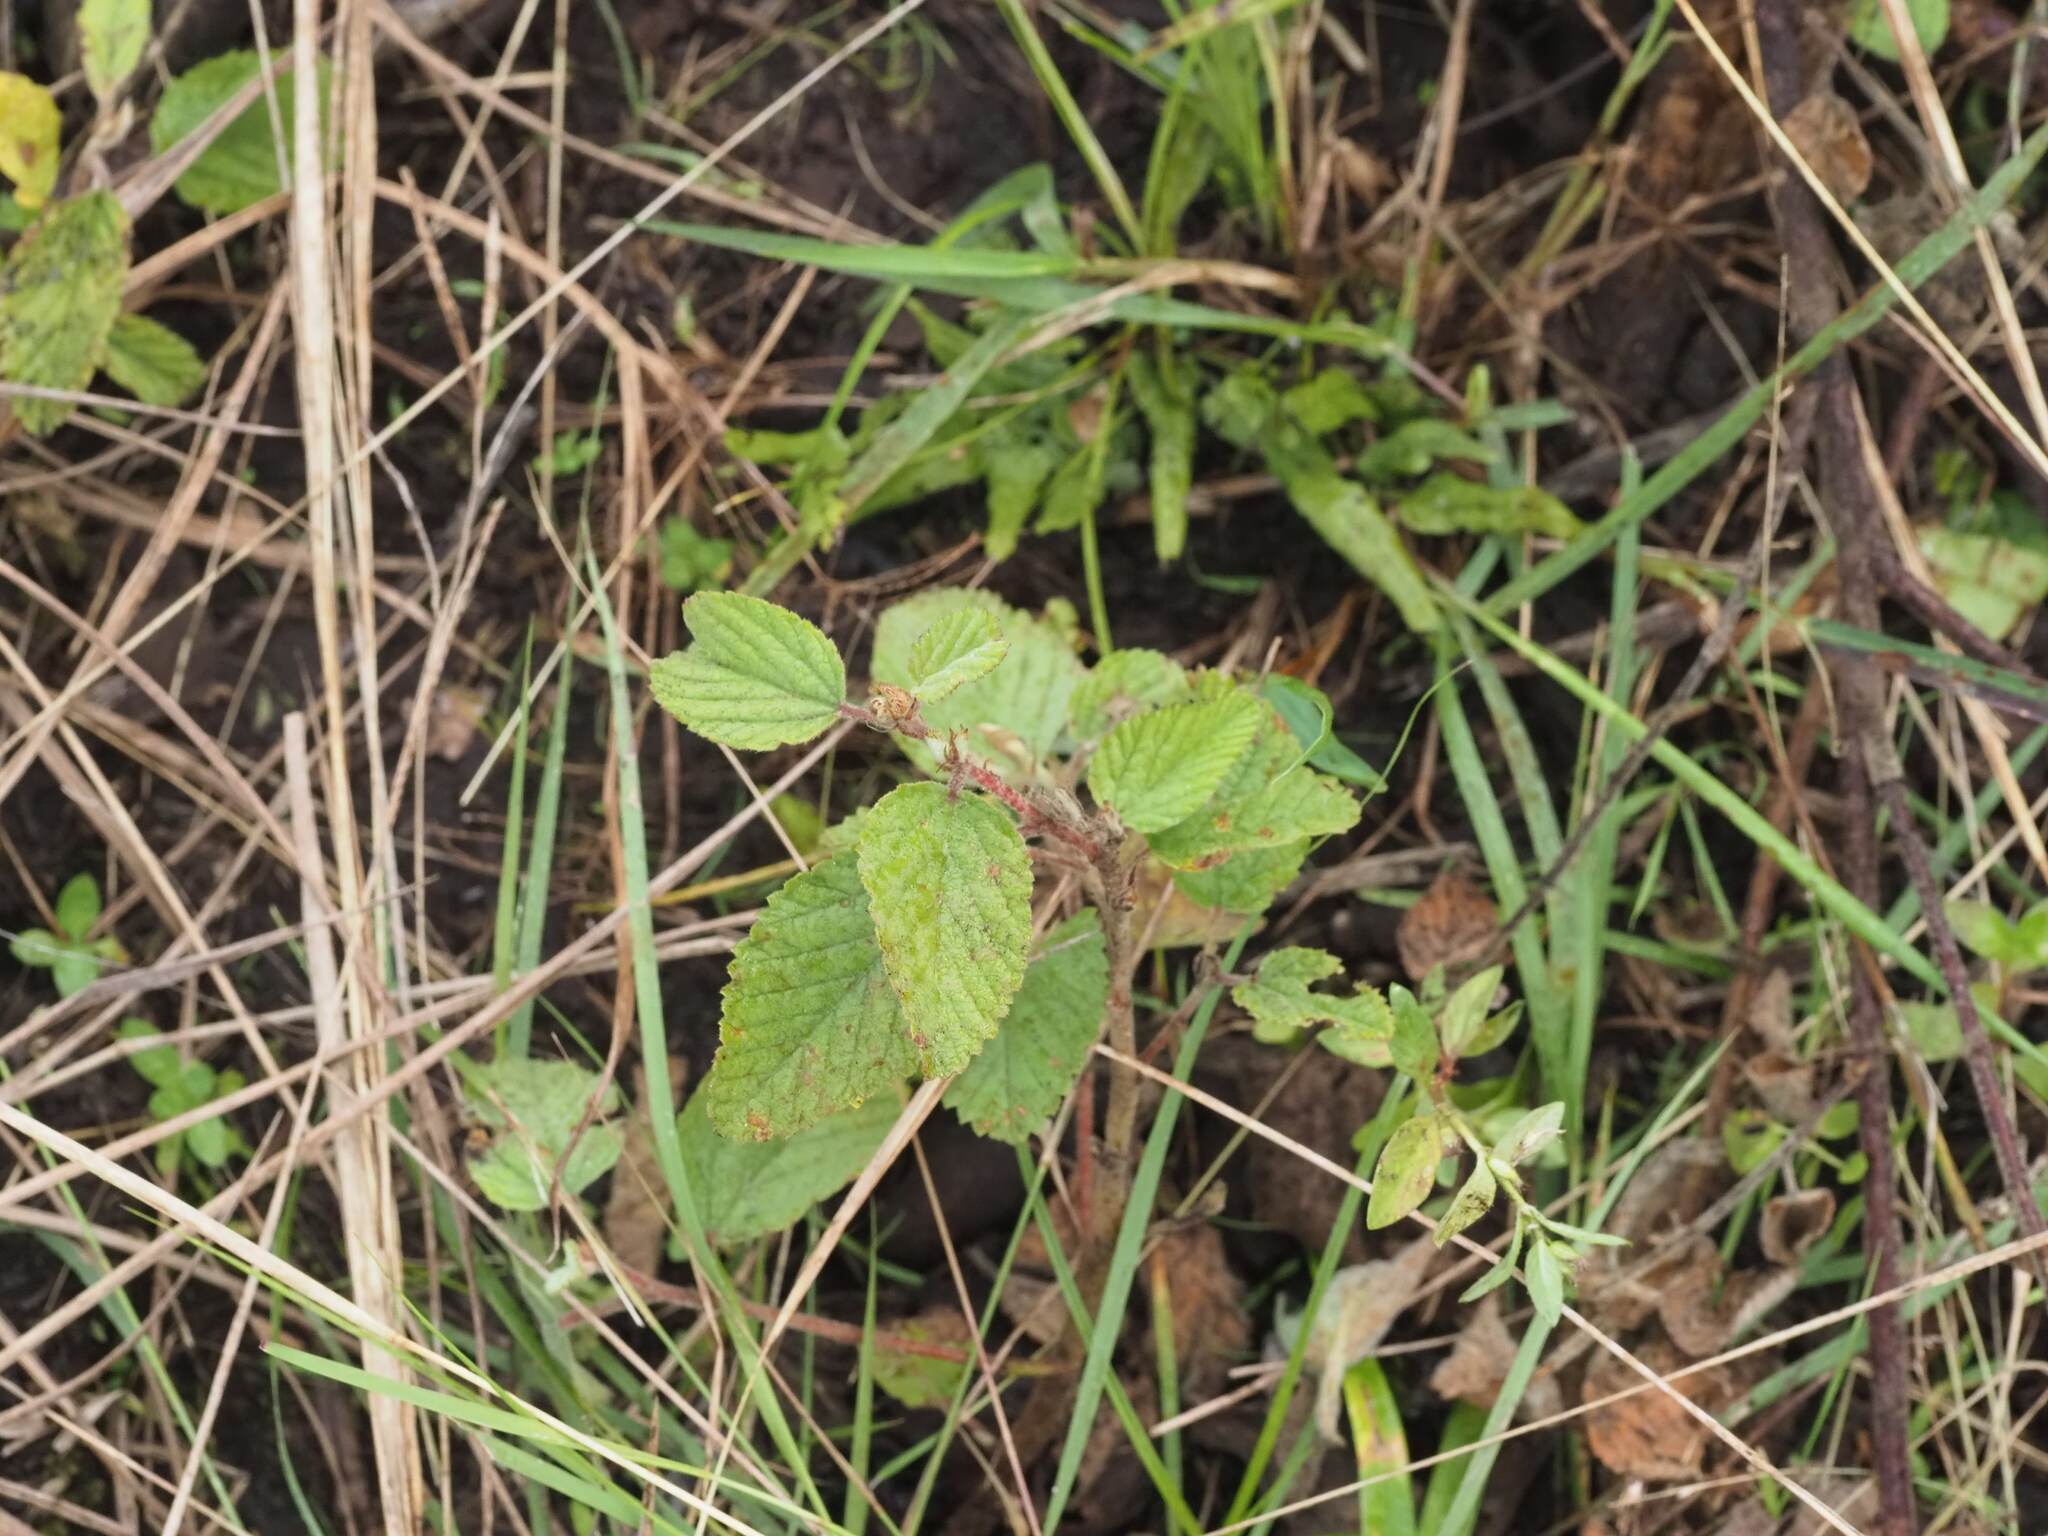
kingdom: Plantae
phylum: Tracheophyta
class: Magnoliopsida
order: Malvales
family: Malvaceae
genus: Waltheria
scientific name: Waltheria indica
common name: Leather-coat
